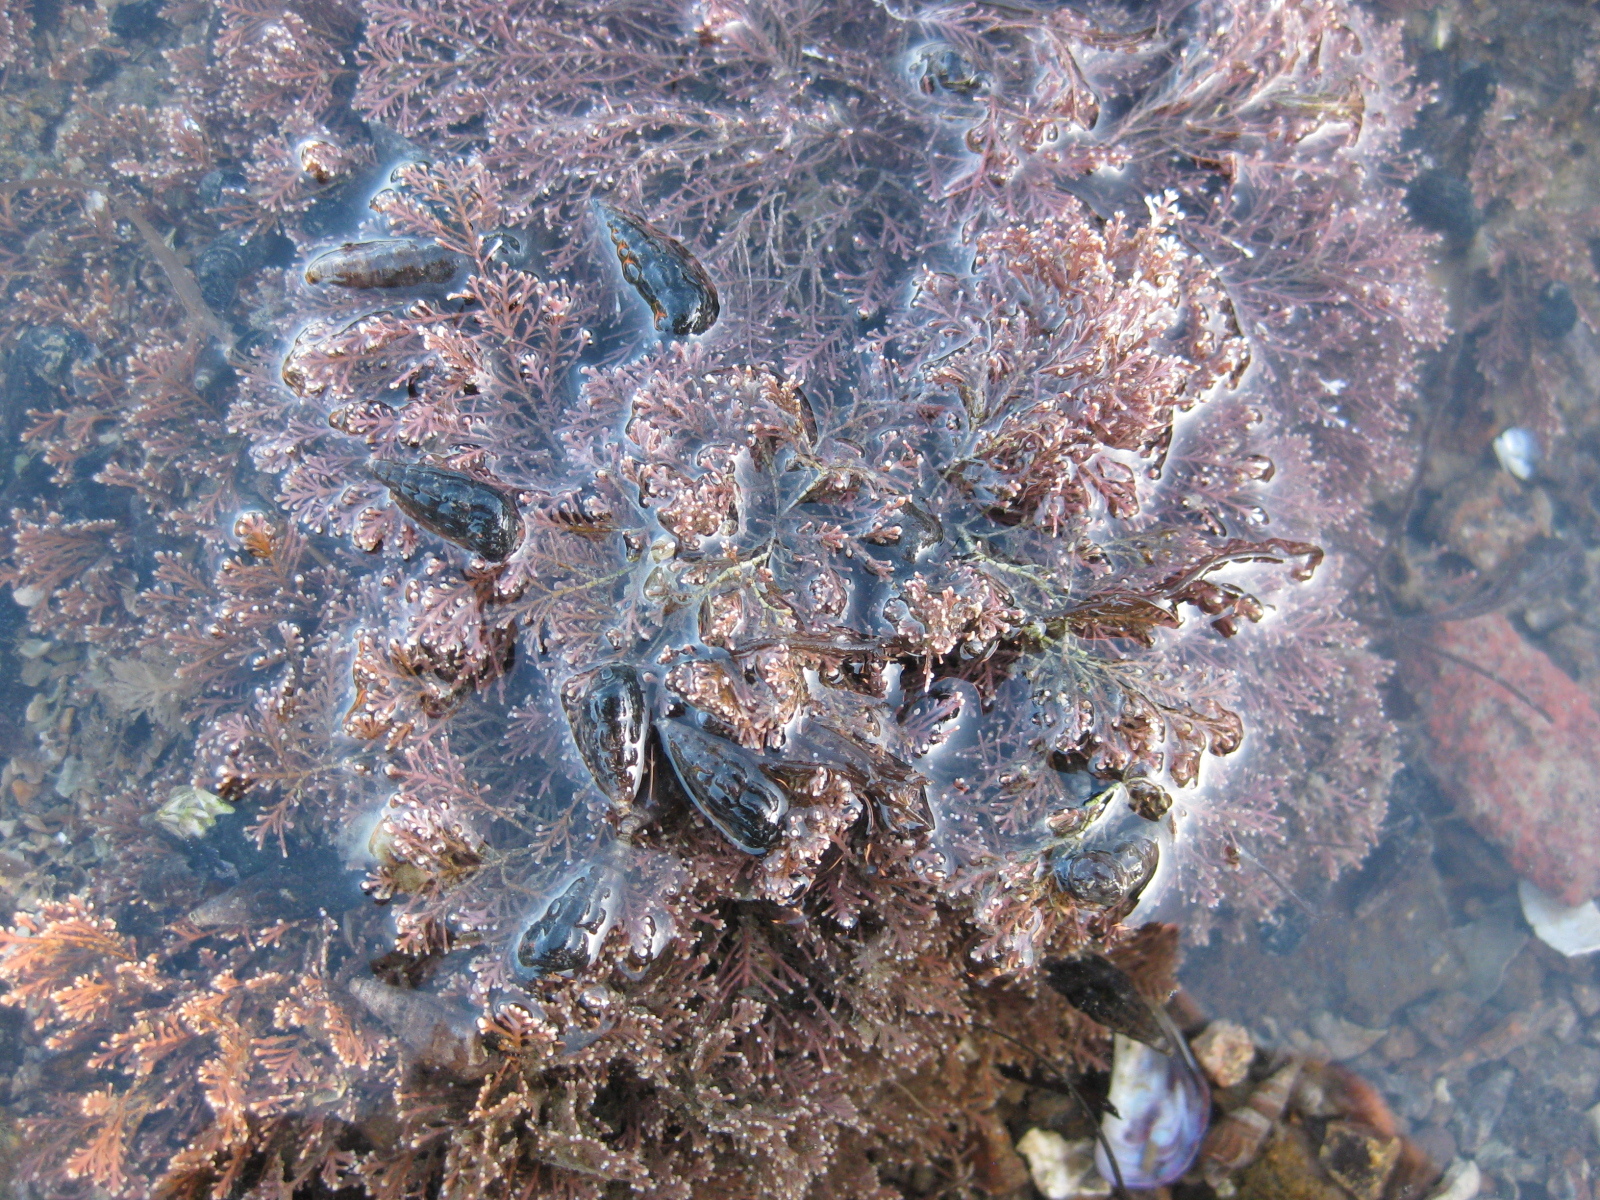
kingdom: Plantae
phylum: Rhodophyta
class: Florideophyceae
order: Corallinales
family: Corallinaceae
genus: Corallina
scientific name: Corallina officinalis
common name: Coral weed
